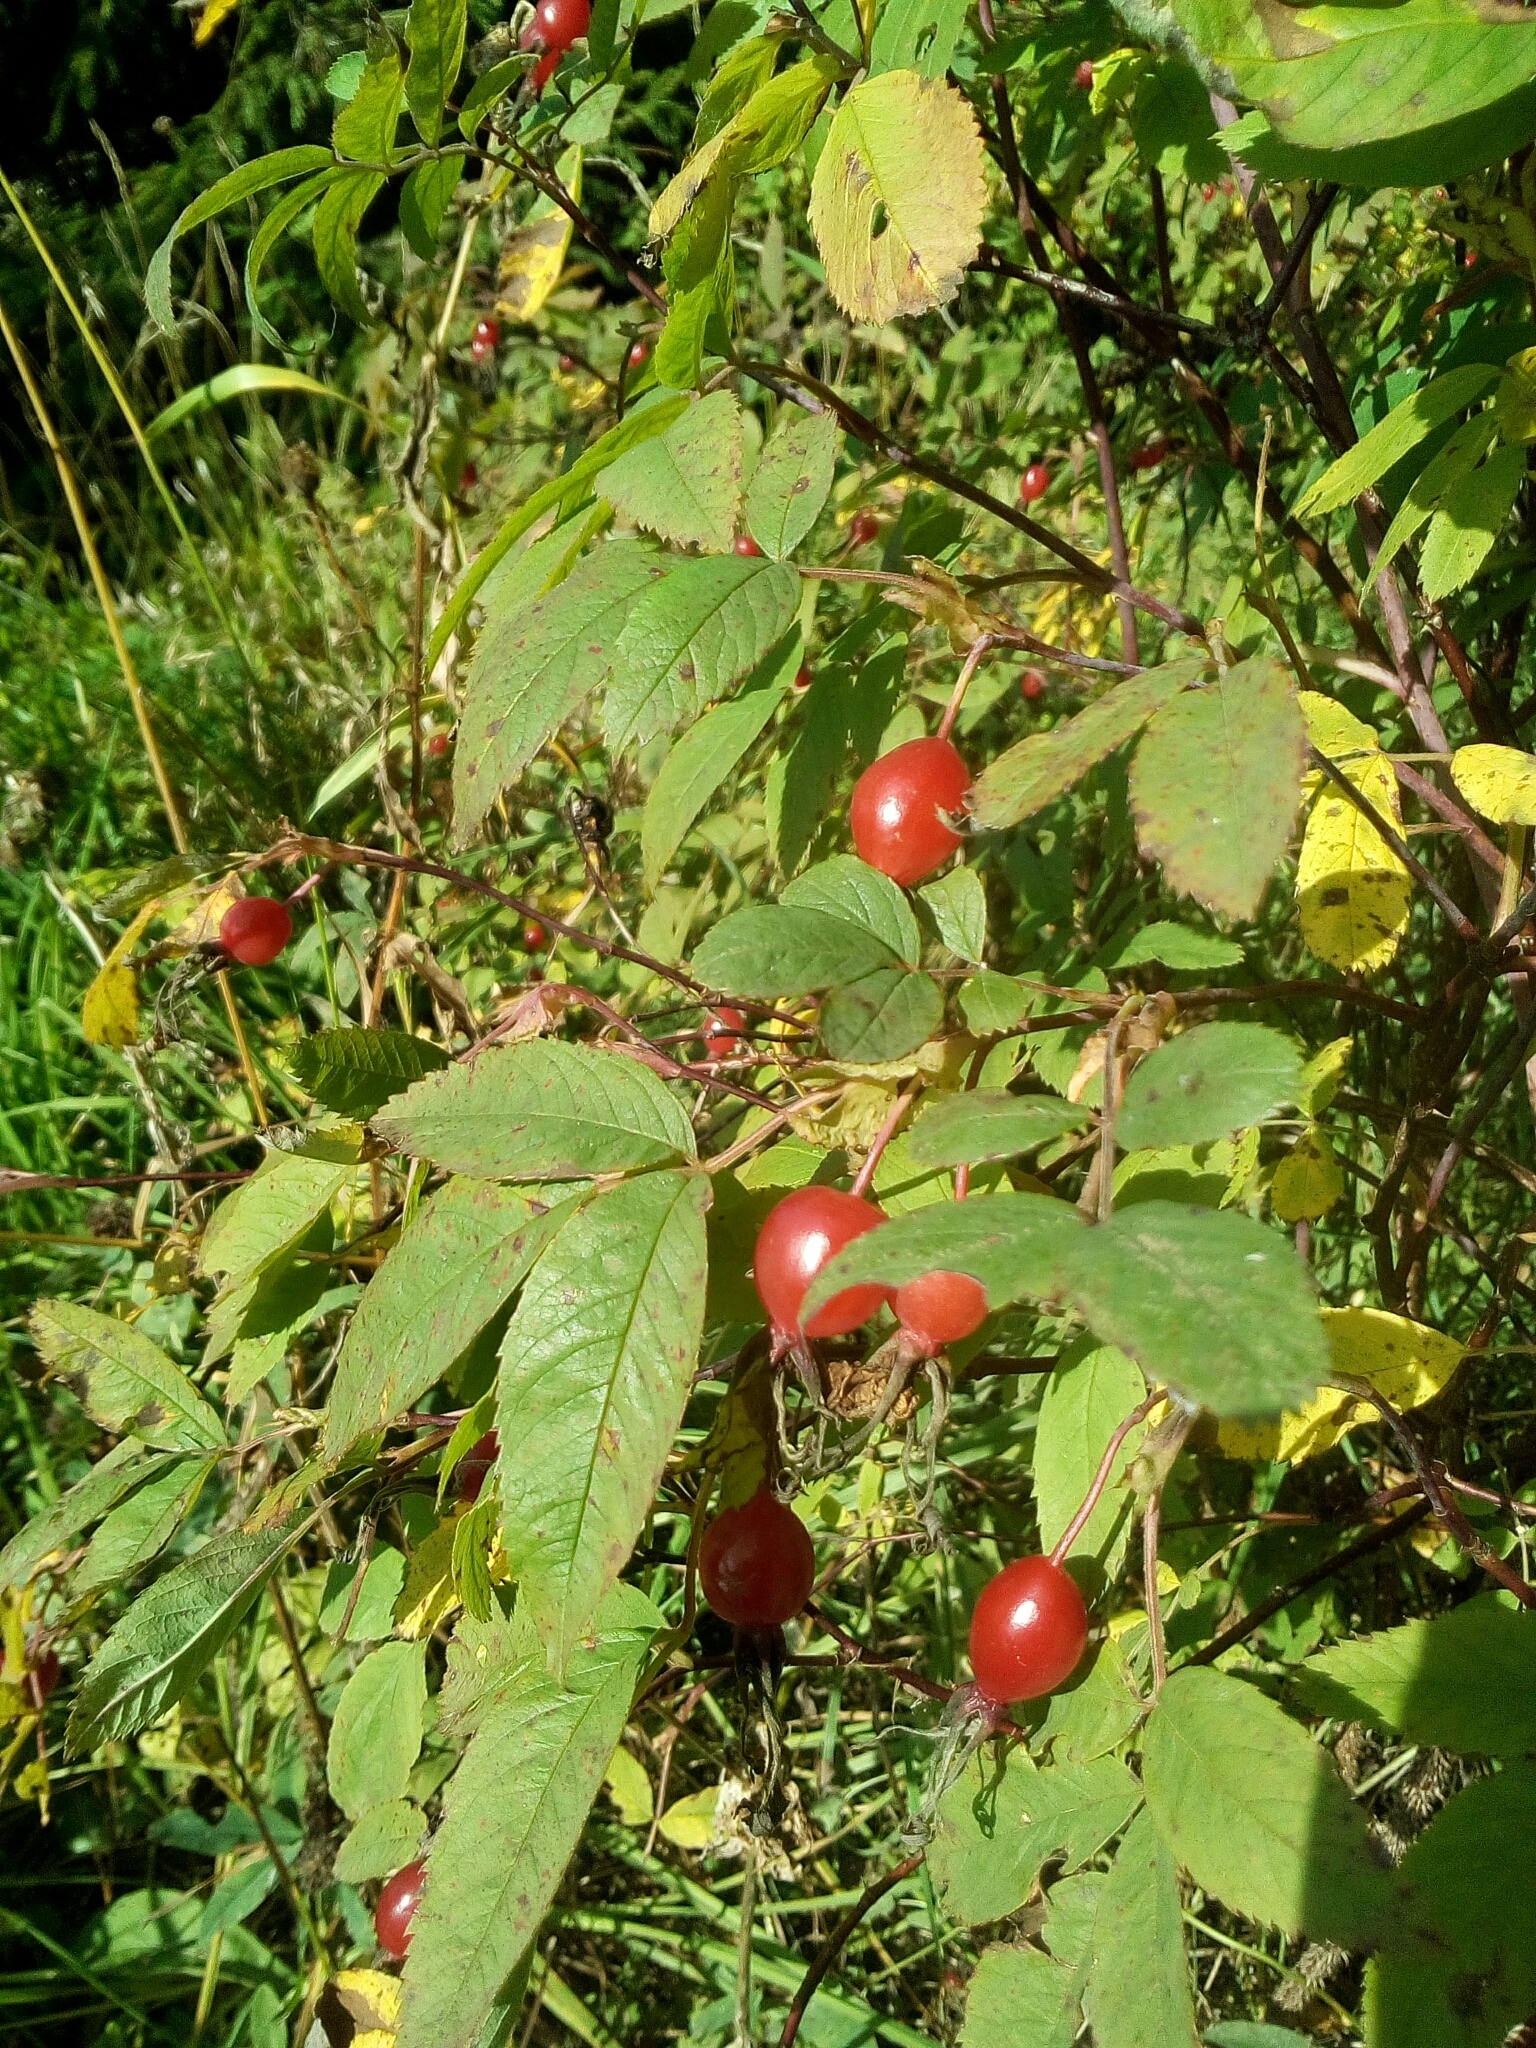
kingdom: Plantae
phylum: Tracheophyta
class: Magnoliopsida
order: Rosales
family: Rosaceae
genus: Rosa
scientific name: Rosa
